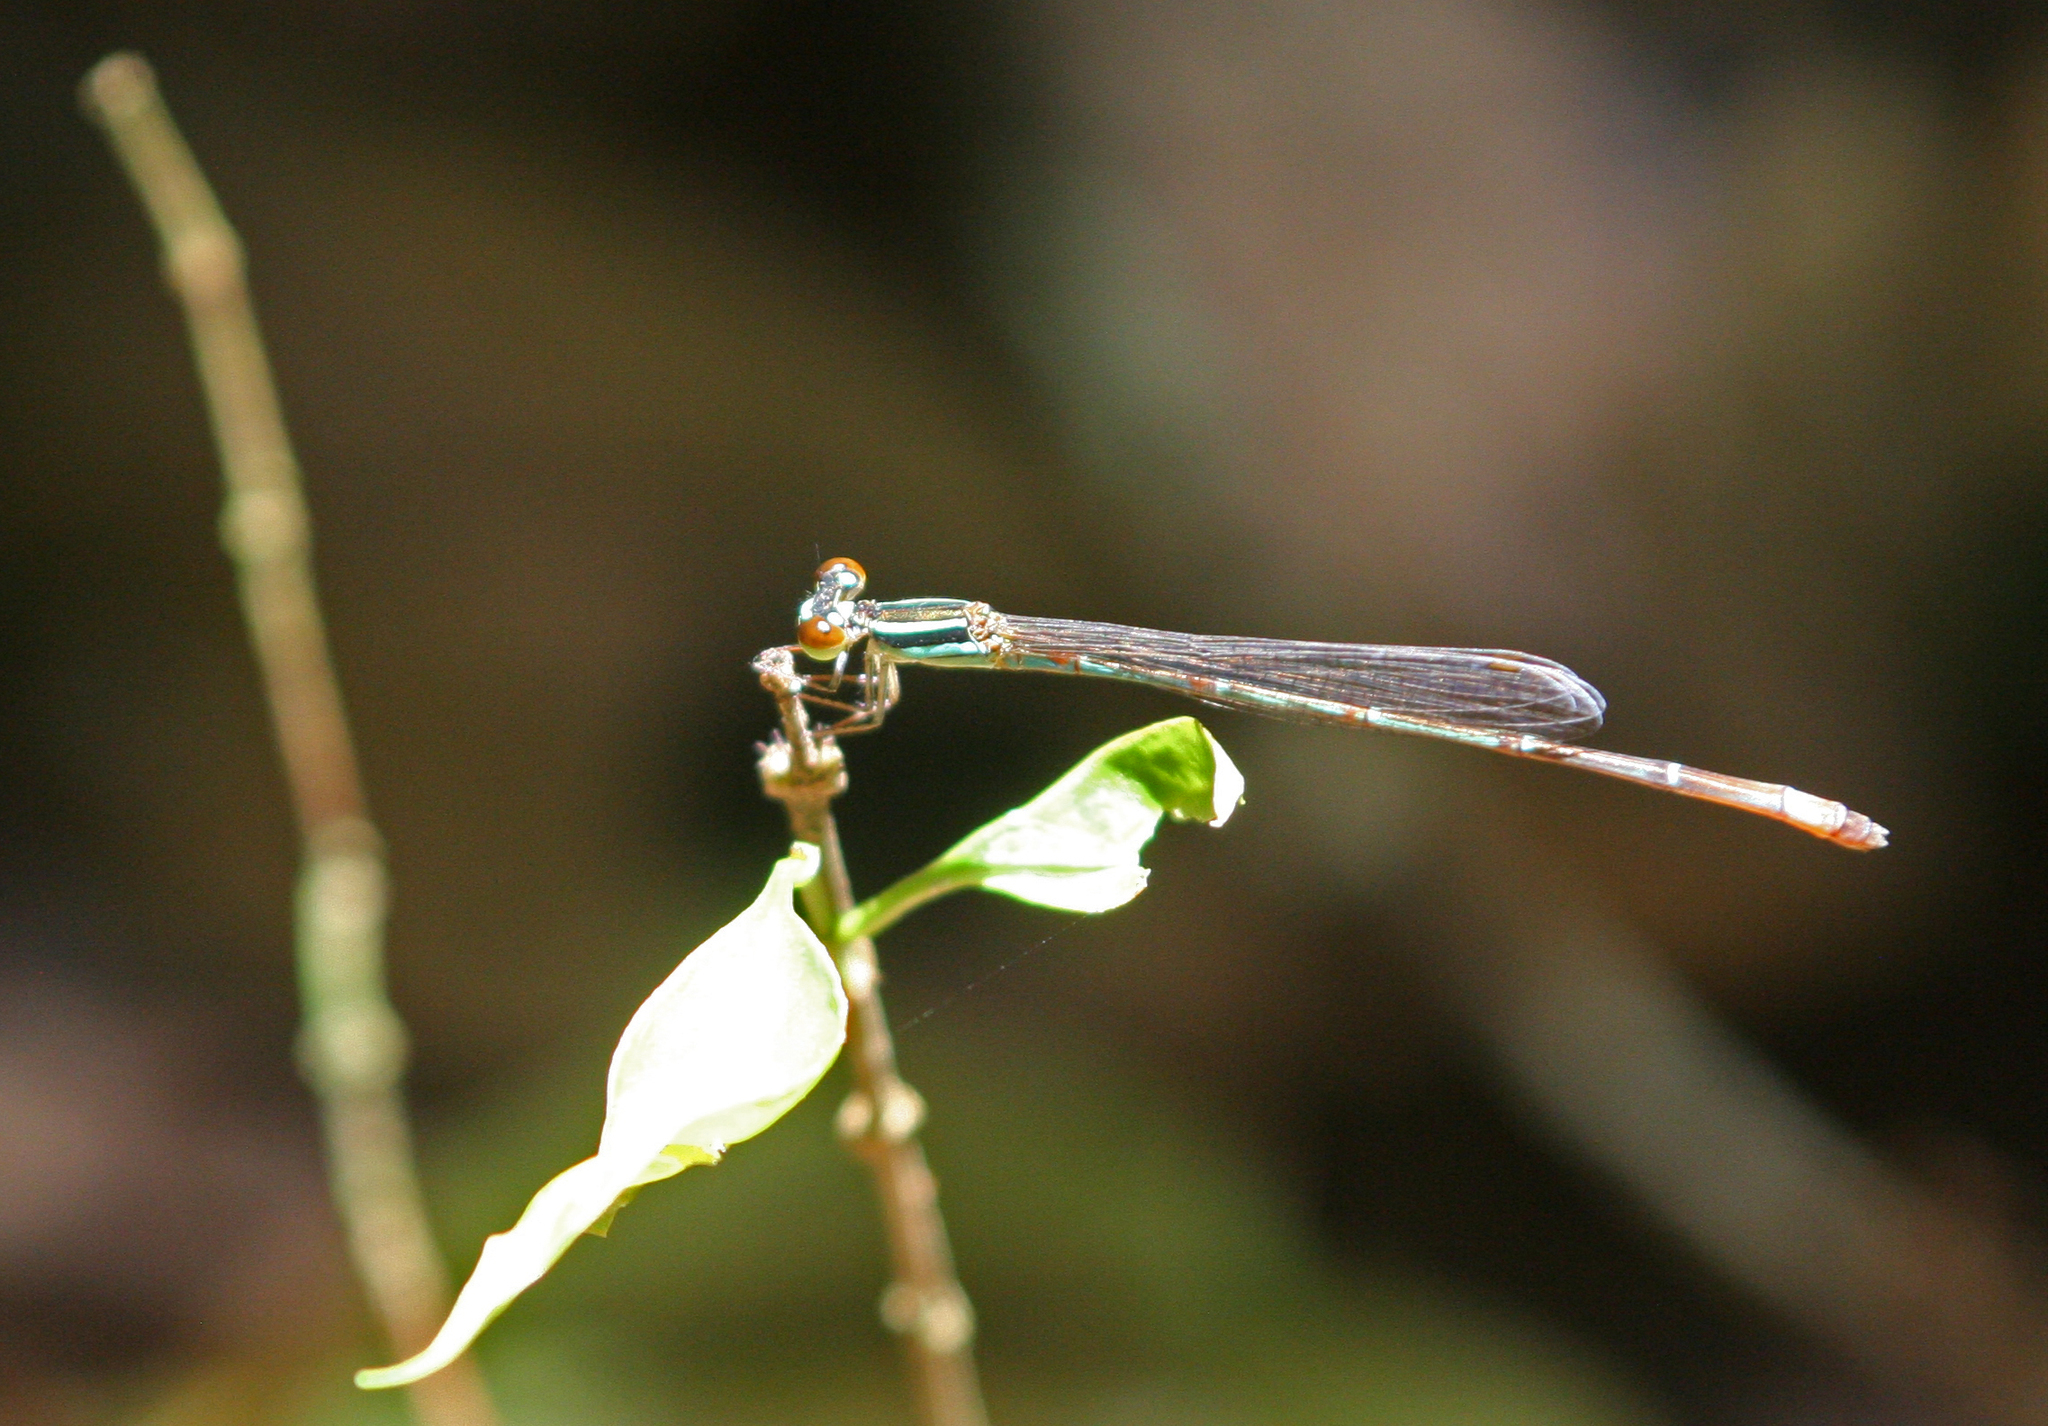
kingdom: Animalia
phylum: Arthropoda
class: Insecta
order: Odonata
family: Coenagrionidae
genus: Argiocnemis
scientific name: Argiocnemis rubescens
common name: Red-tipped shadefly
